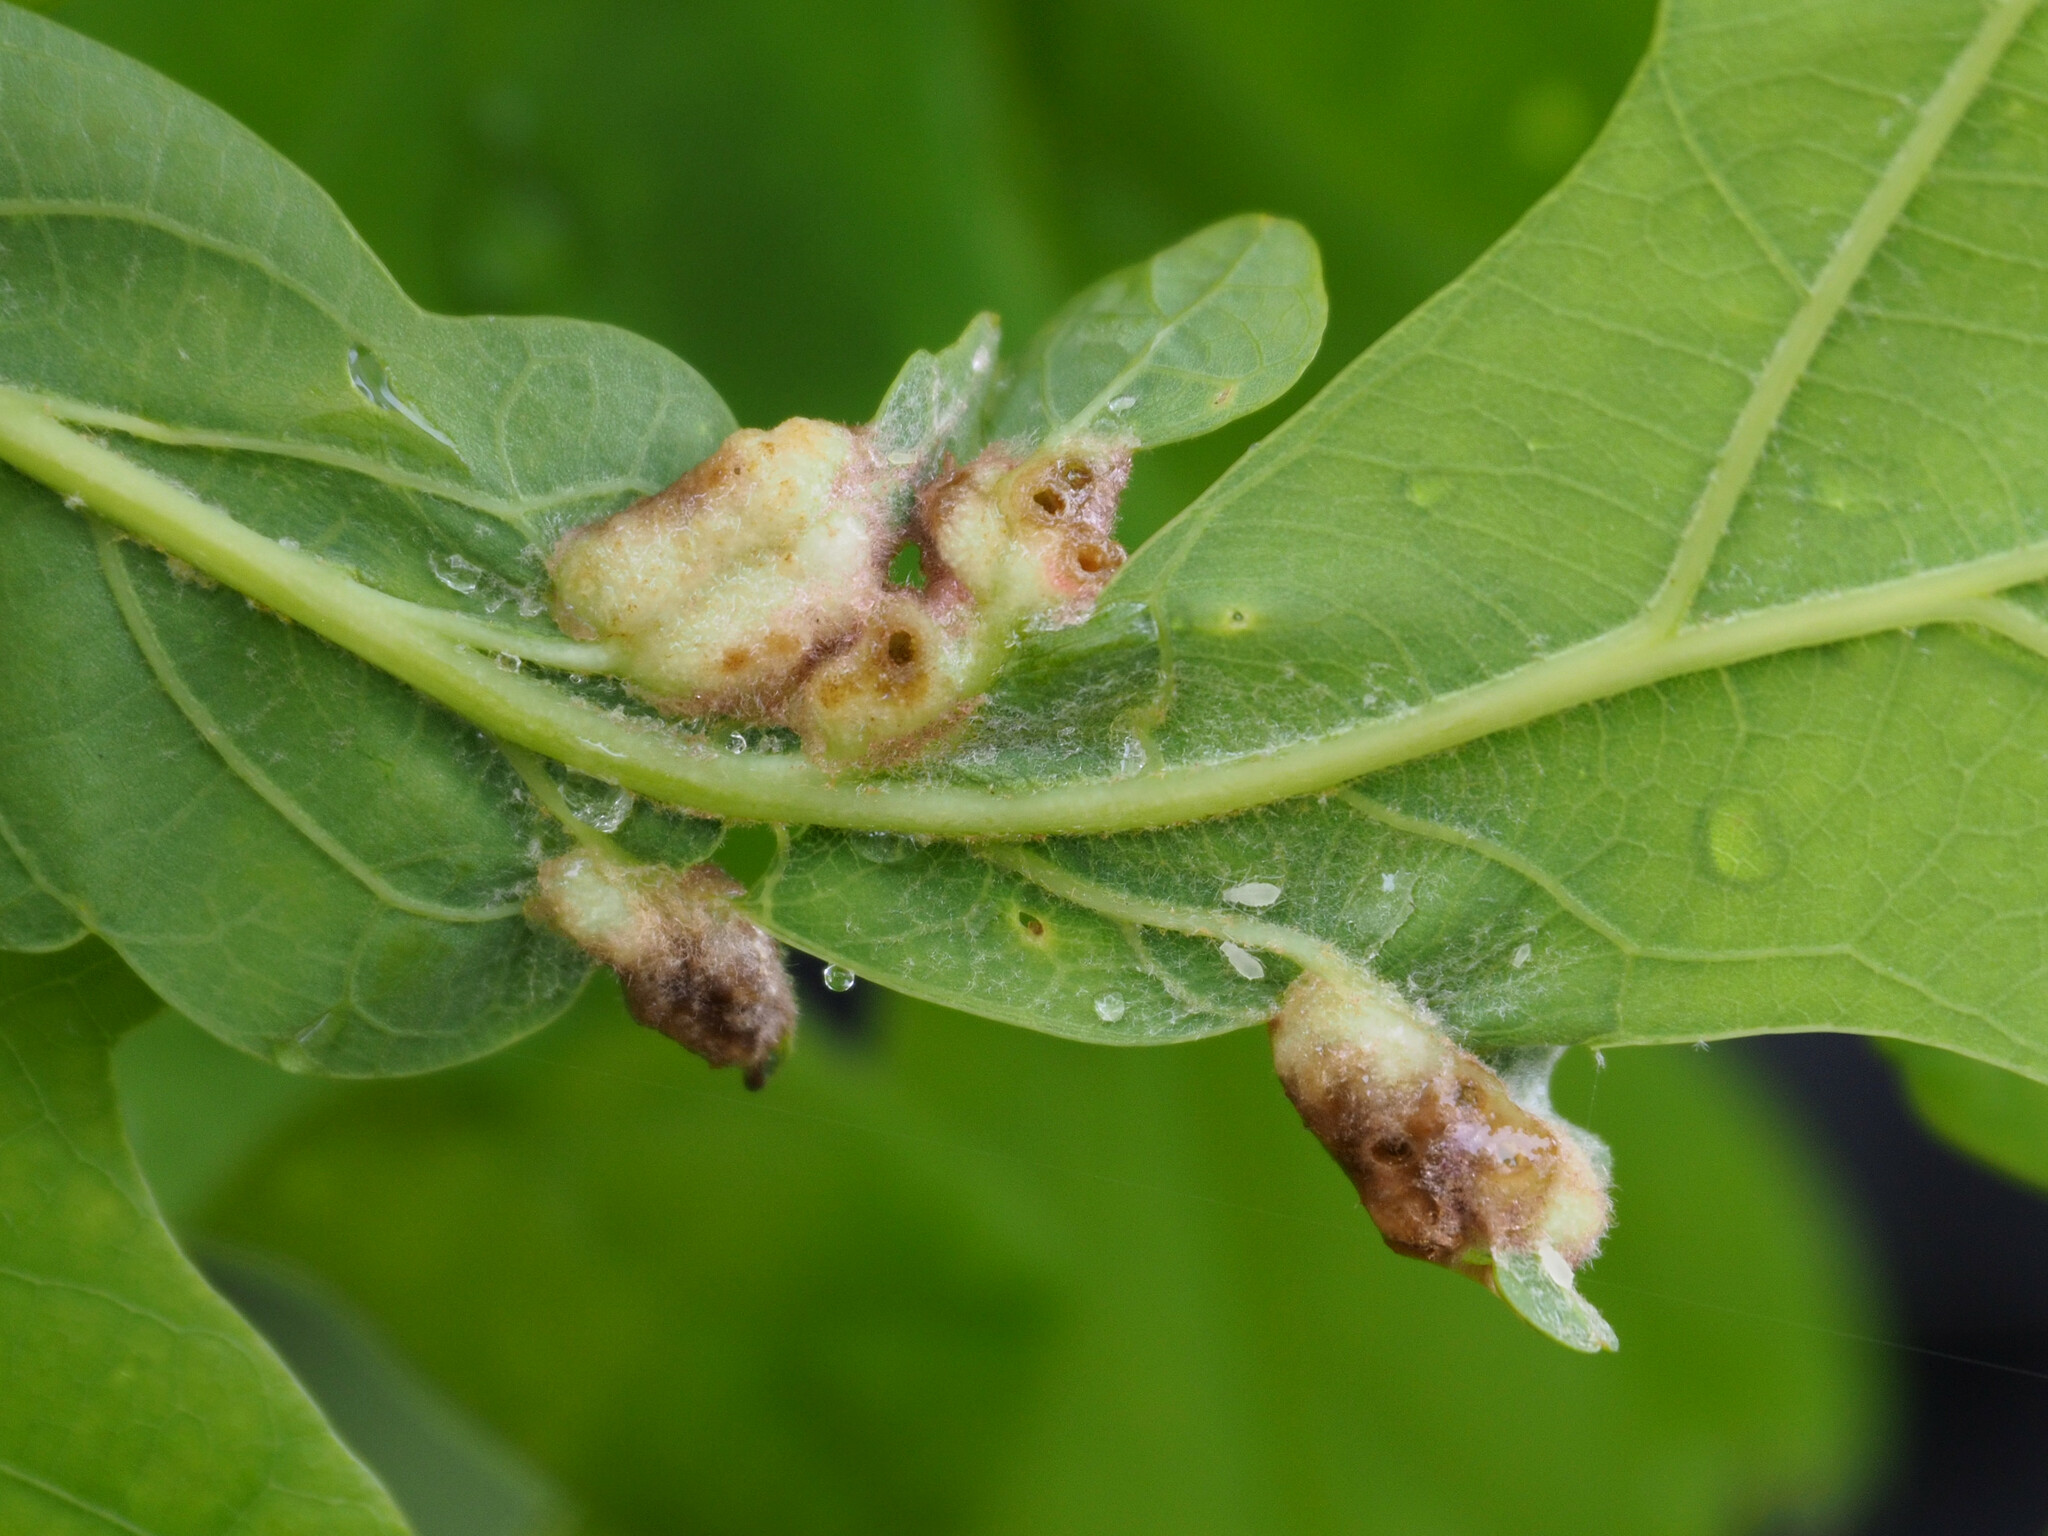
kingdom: Animalia
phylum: Arthropoda
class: Insecta
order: Hymenoptera
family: Cynipidae
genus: Callirhytis
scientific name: Callirhytis
